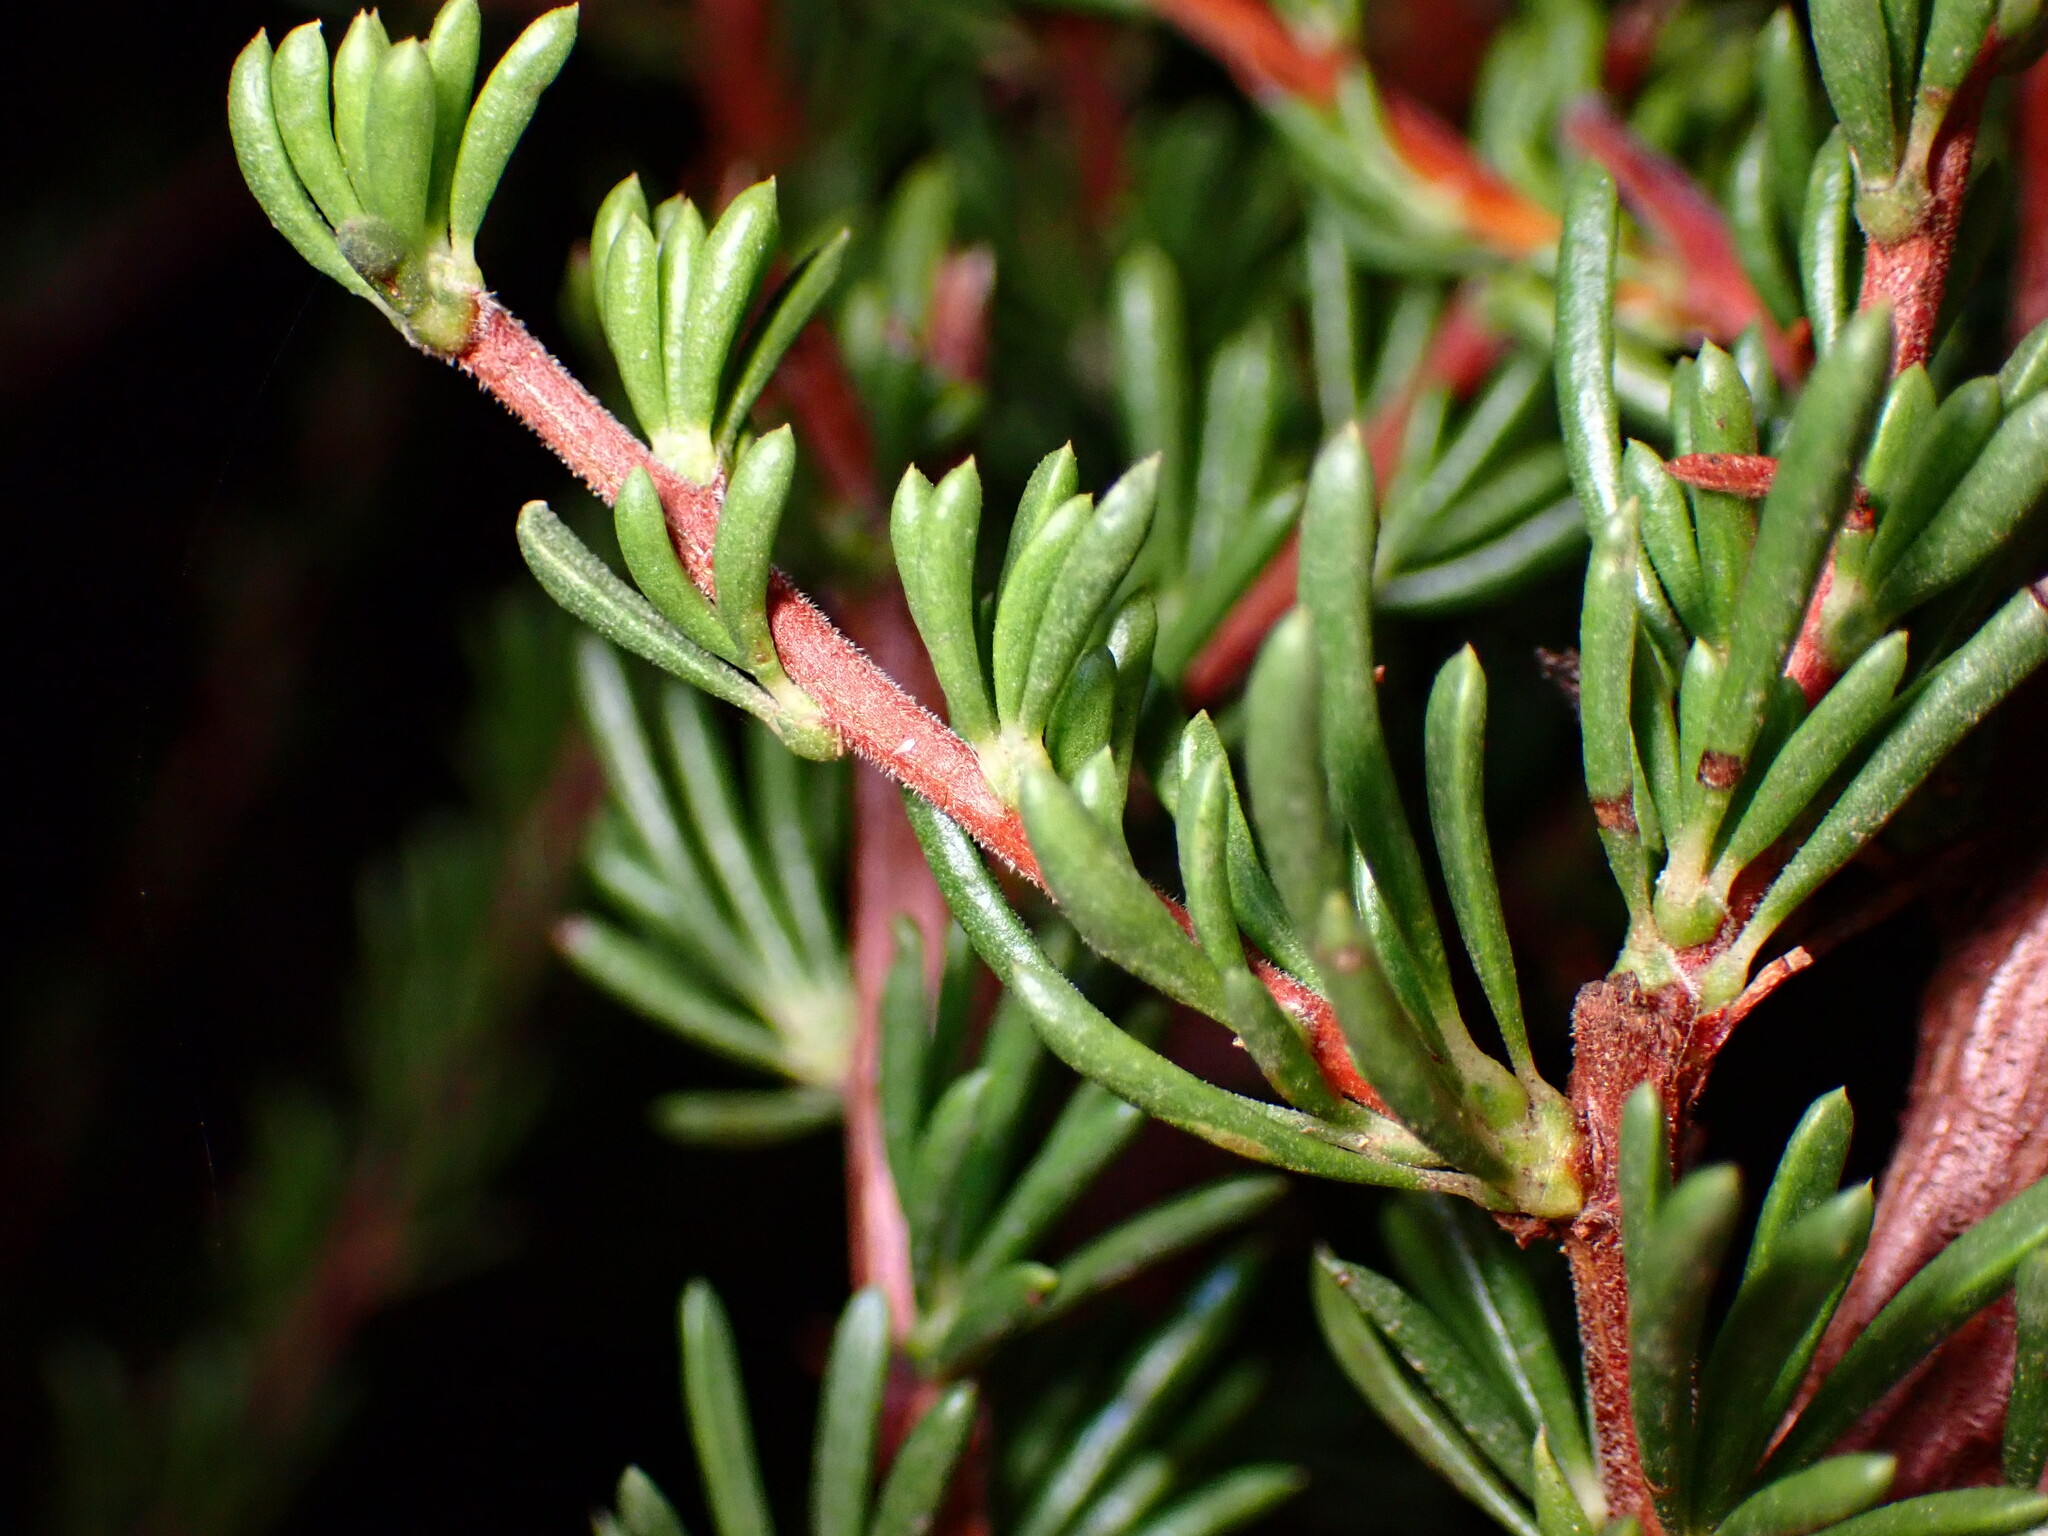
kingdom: Plantae
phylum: Tracheophyta
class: Magnoliopsida
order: Rosales
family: Rosaceae
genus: Adenostoma
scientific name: Adenostoma fasciculatum
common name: Chamise
